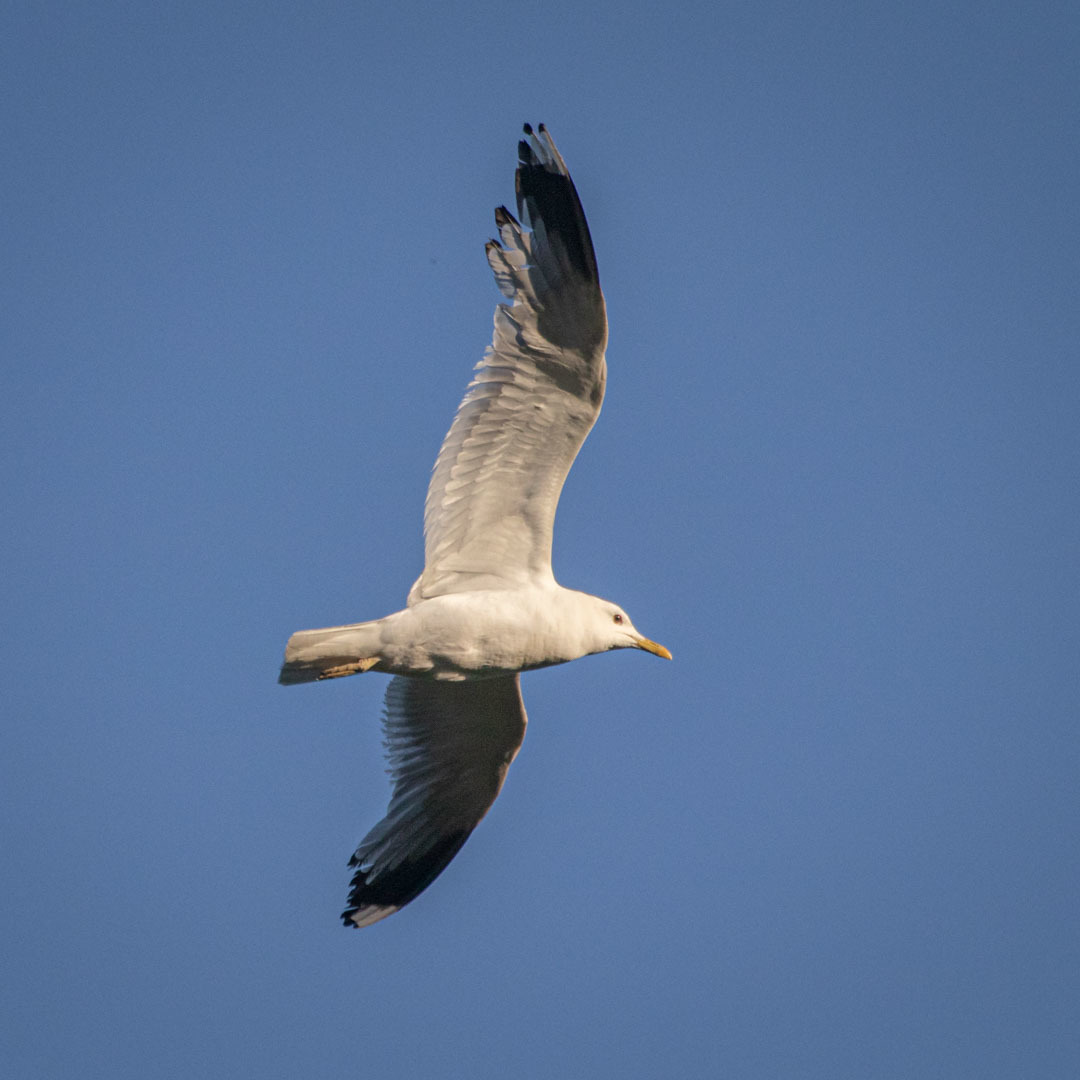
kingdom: Animalia
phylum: Chordata
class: Aves
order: Charadriiformes
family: Laridae
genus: Larus
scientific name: Larus canus
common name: Mew gull
